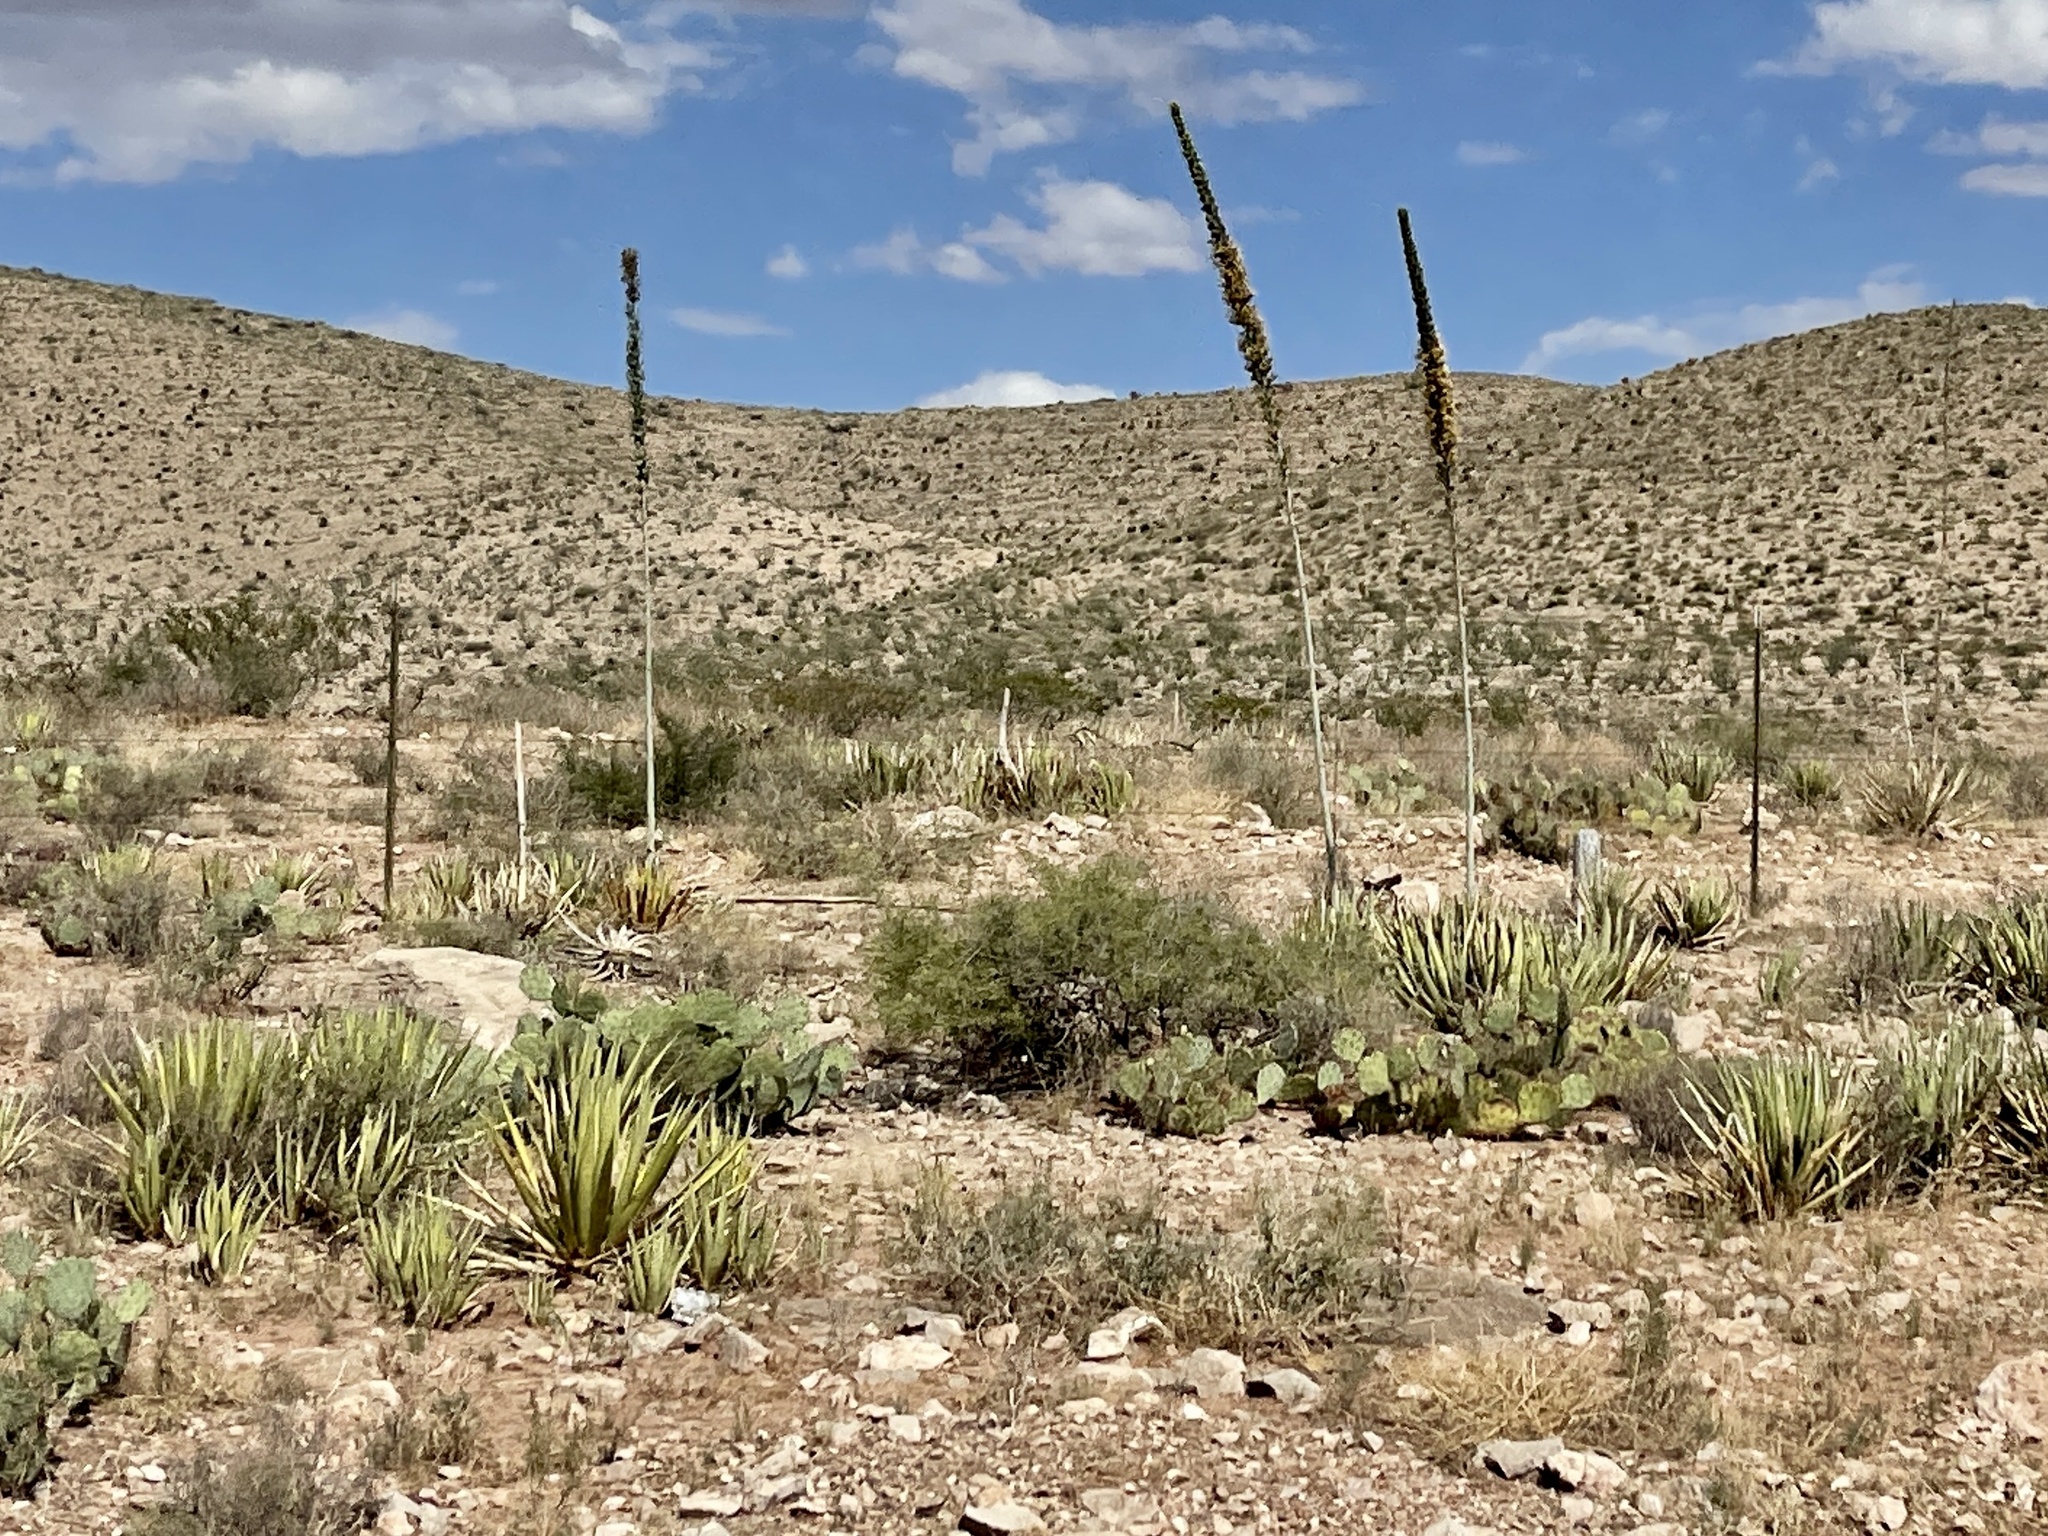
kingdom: Plantae
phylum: Tracheophyta
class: Liliopsida
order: Asparagales
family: Asparagaceae
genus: Agave
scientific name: Agave lechuguilla
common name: Lecheguilla agave
